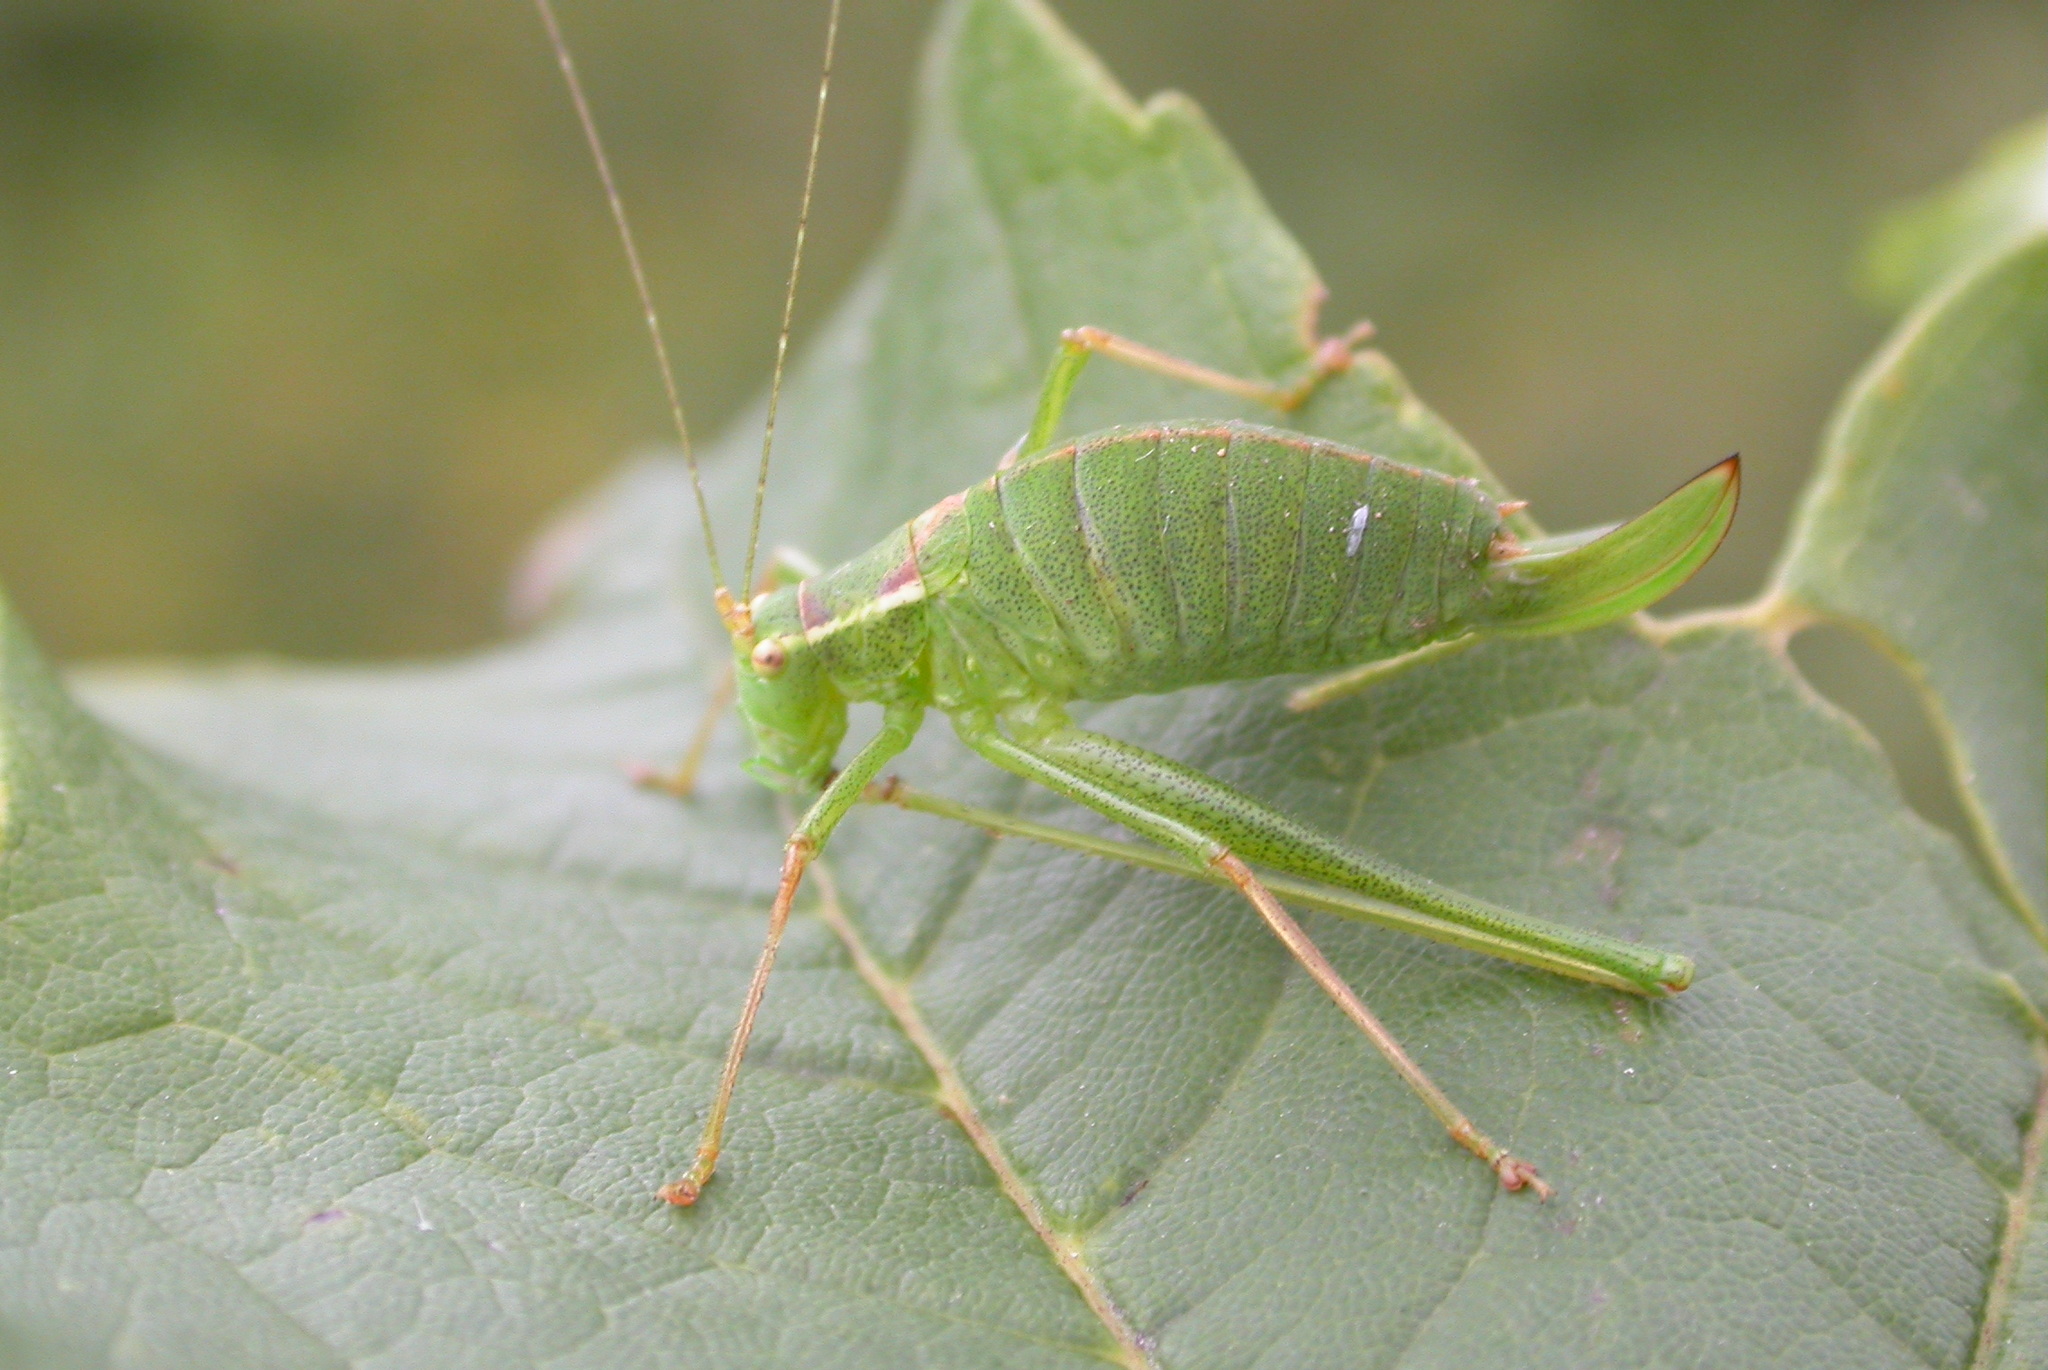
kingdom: Animalia
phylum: Arthropoda
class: Insecta
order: Orthoptera
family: Tettigoniidae
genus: Leptophyes
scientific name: Leptophyes punctatissima
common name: Speckled bush-cricket
